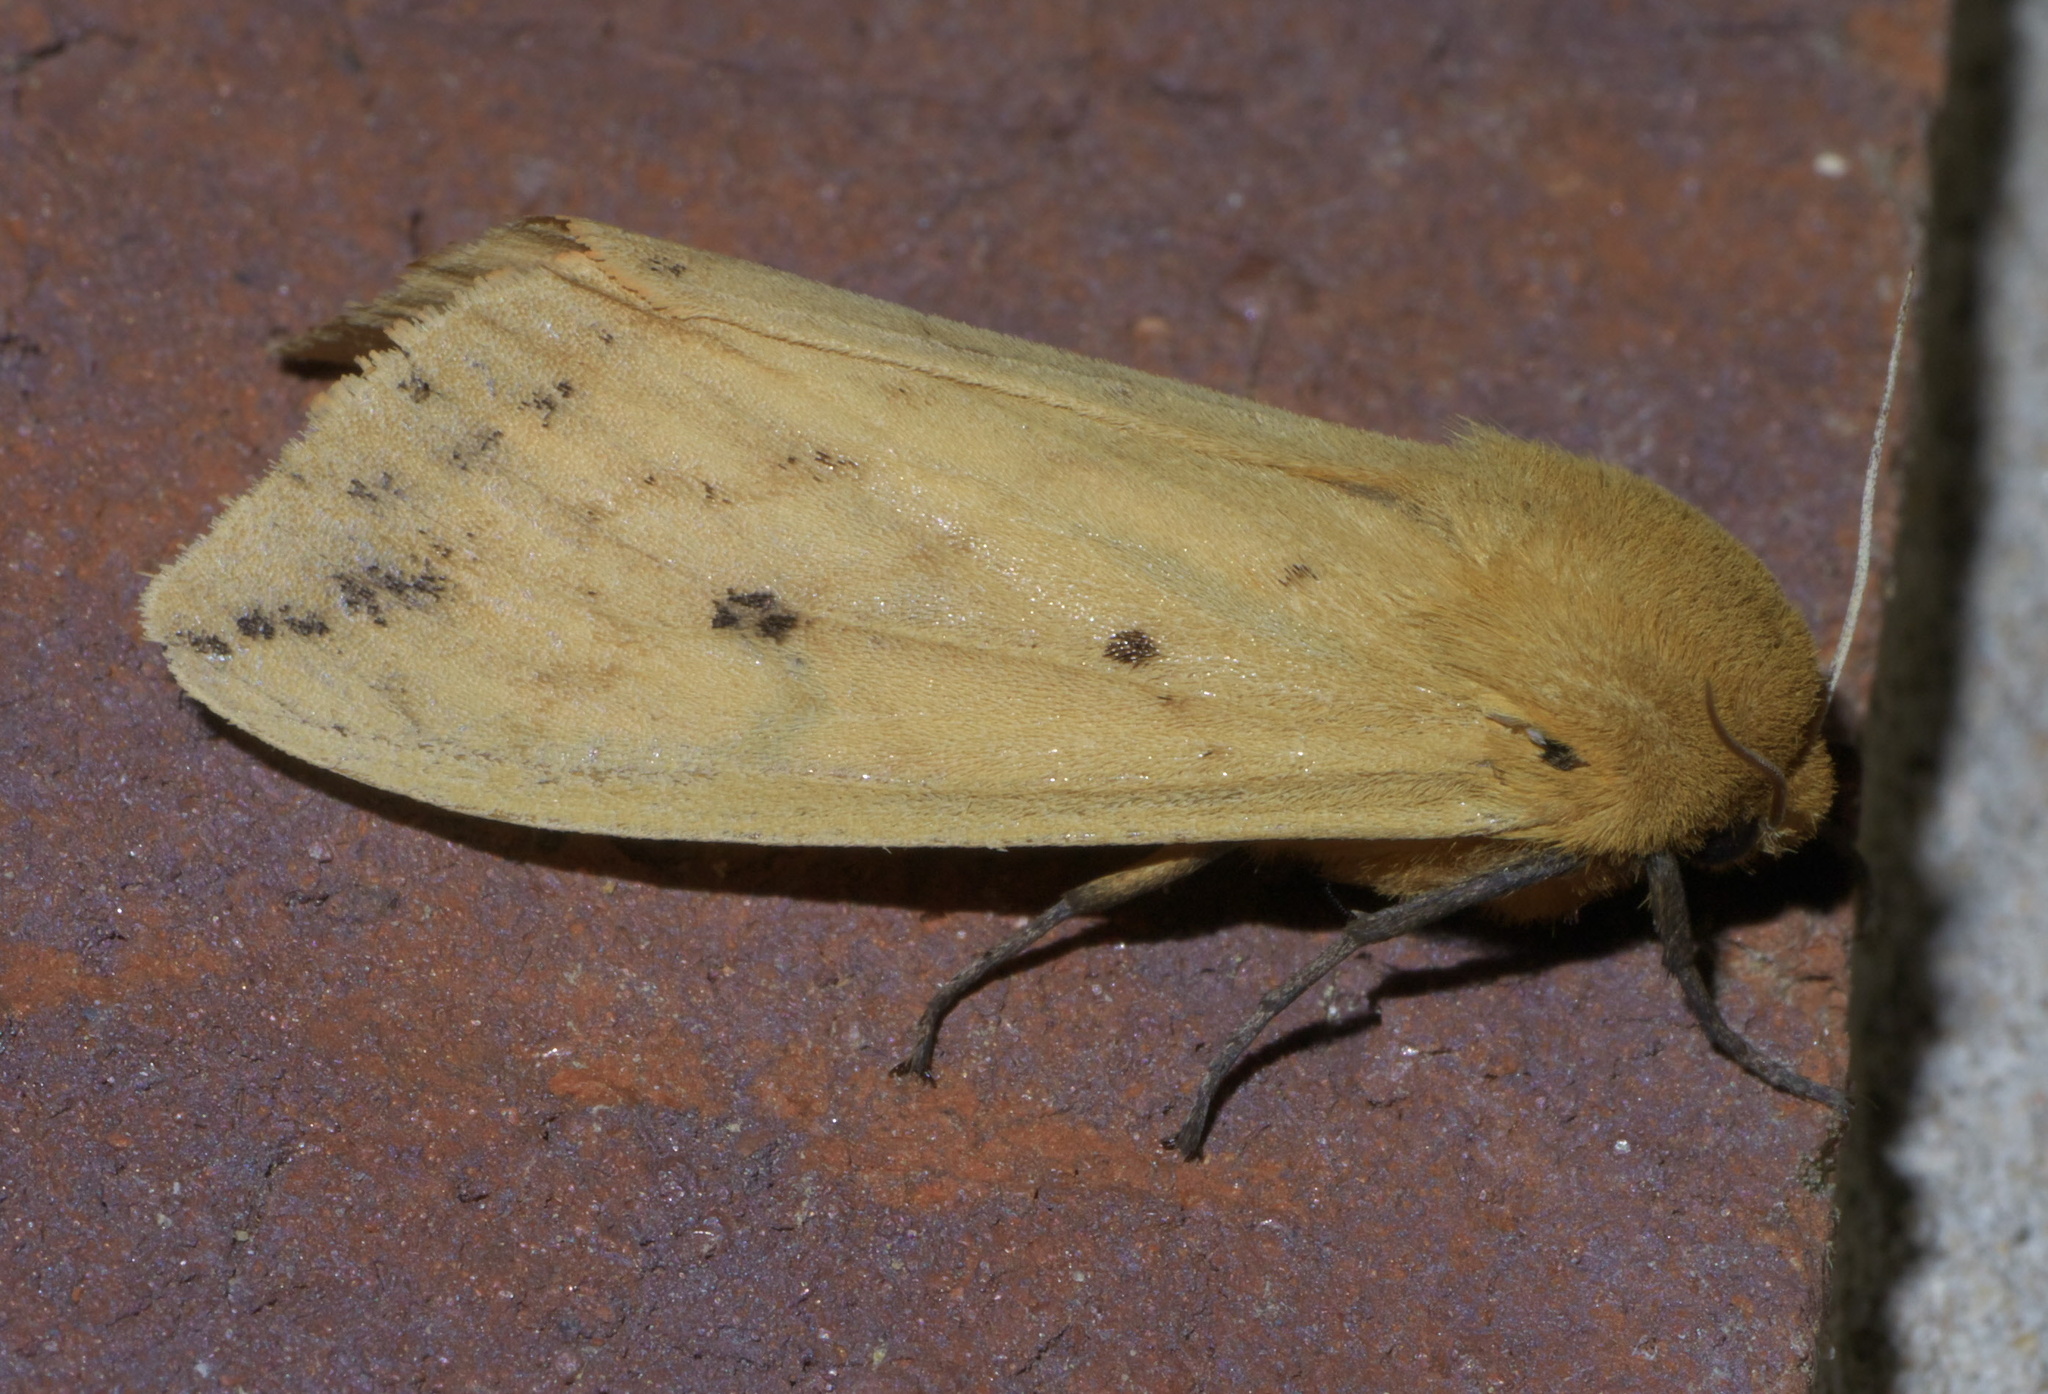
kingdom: Animalia
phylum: Arthropoda
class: Insecta
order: Lepidoptera
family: Erebidae
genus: Pyrrharctia
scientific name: Pyrrharctia isabella
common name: Isabella tiger moth
